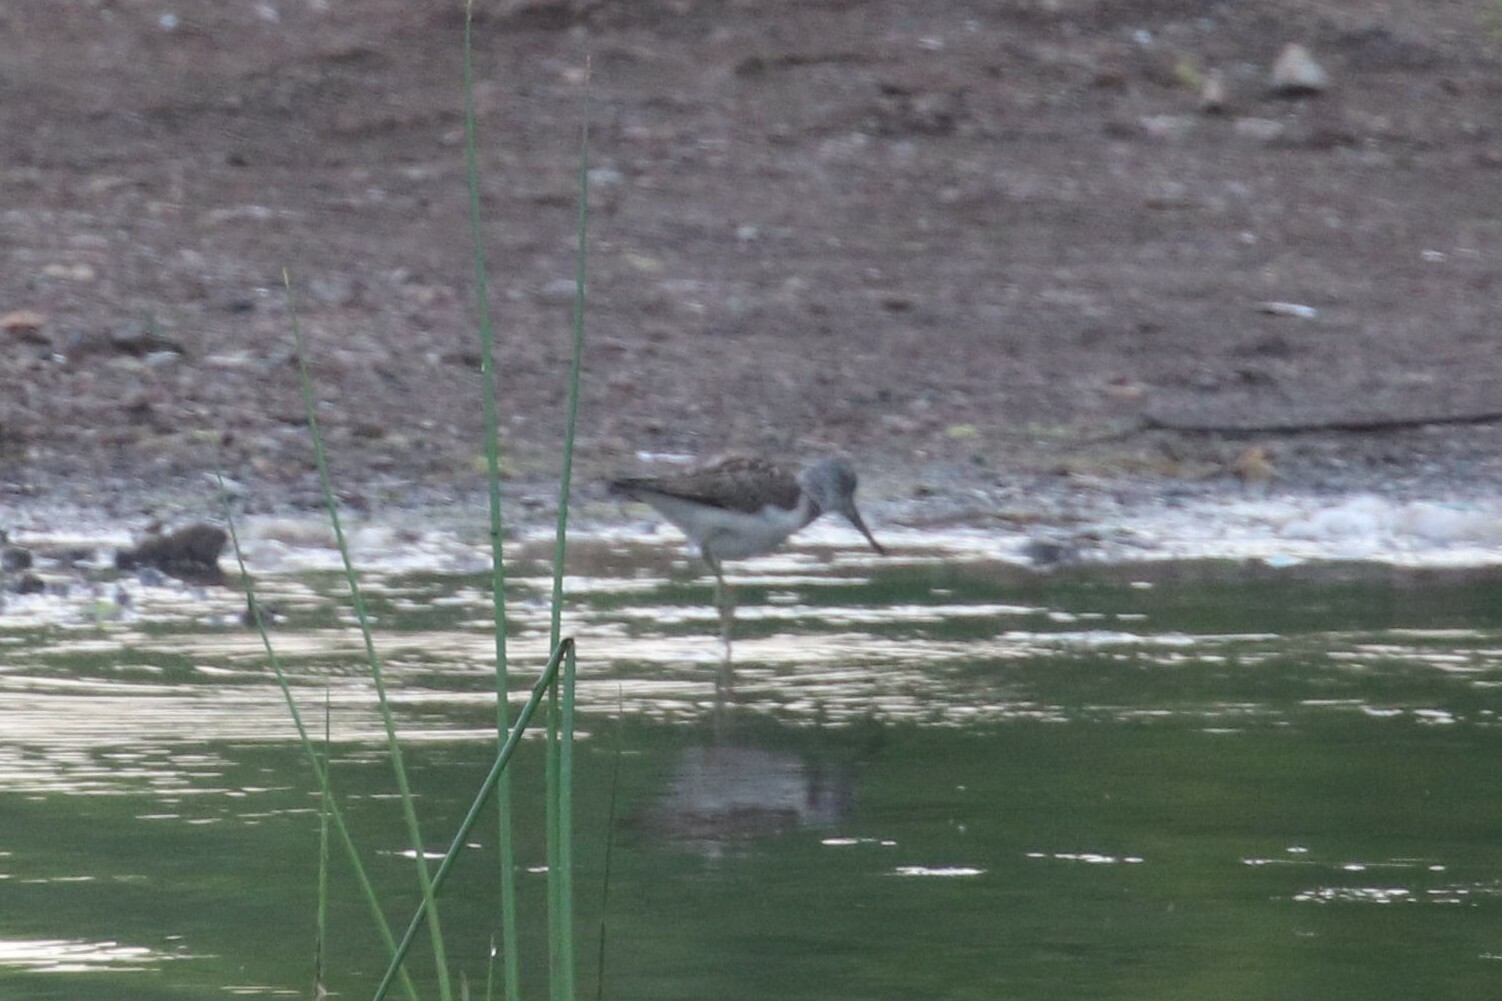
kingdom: Animalia
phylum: Chordata
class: Aves
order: Charadriiformes
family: Scolopacidae
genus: Tringa
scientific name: Tringa nebularia
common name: Common greenshank
